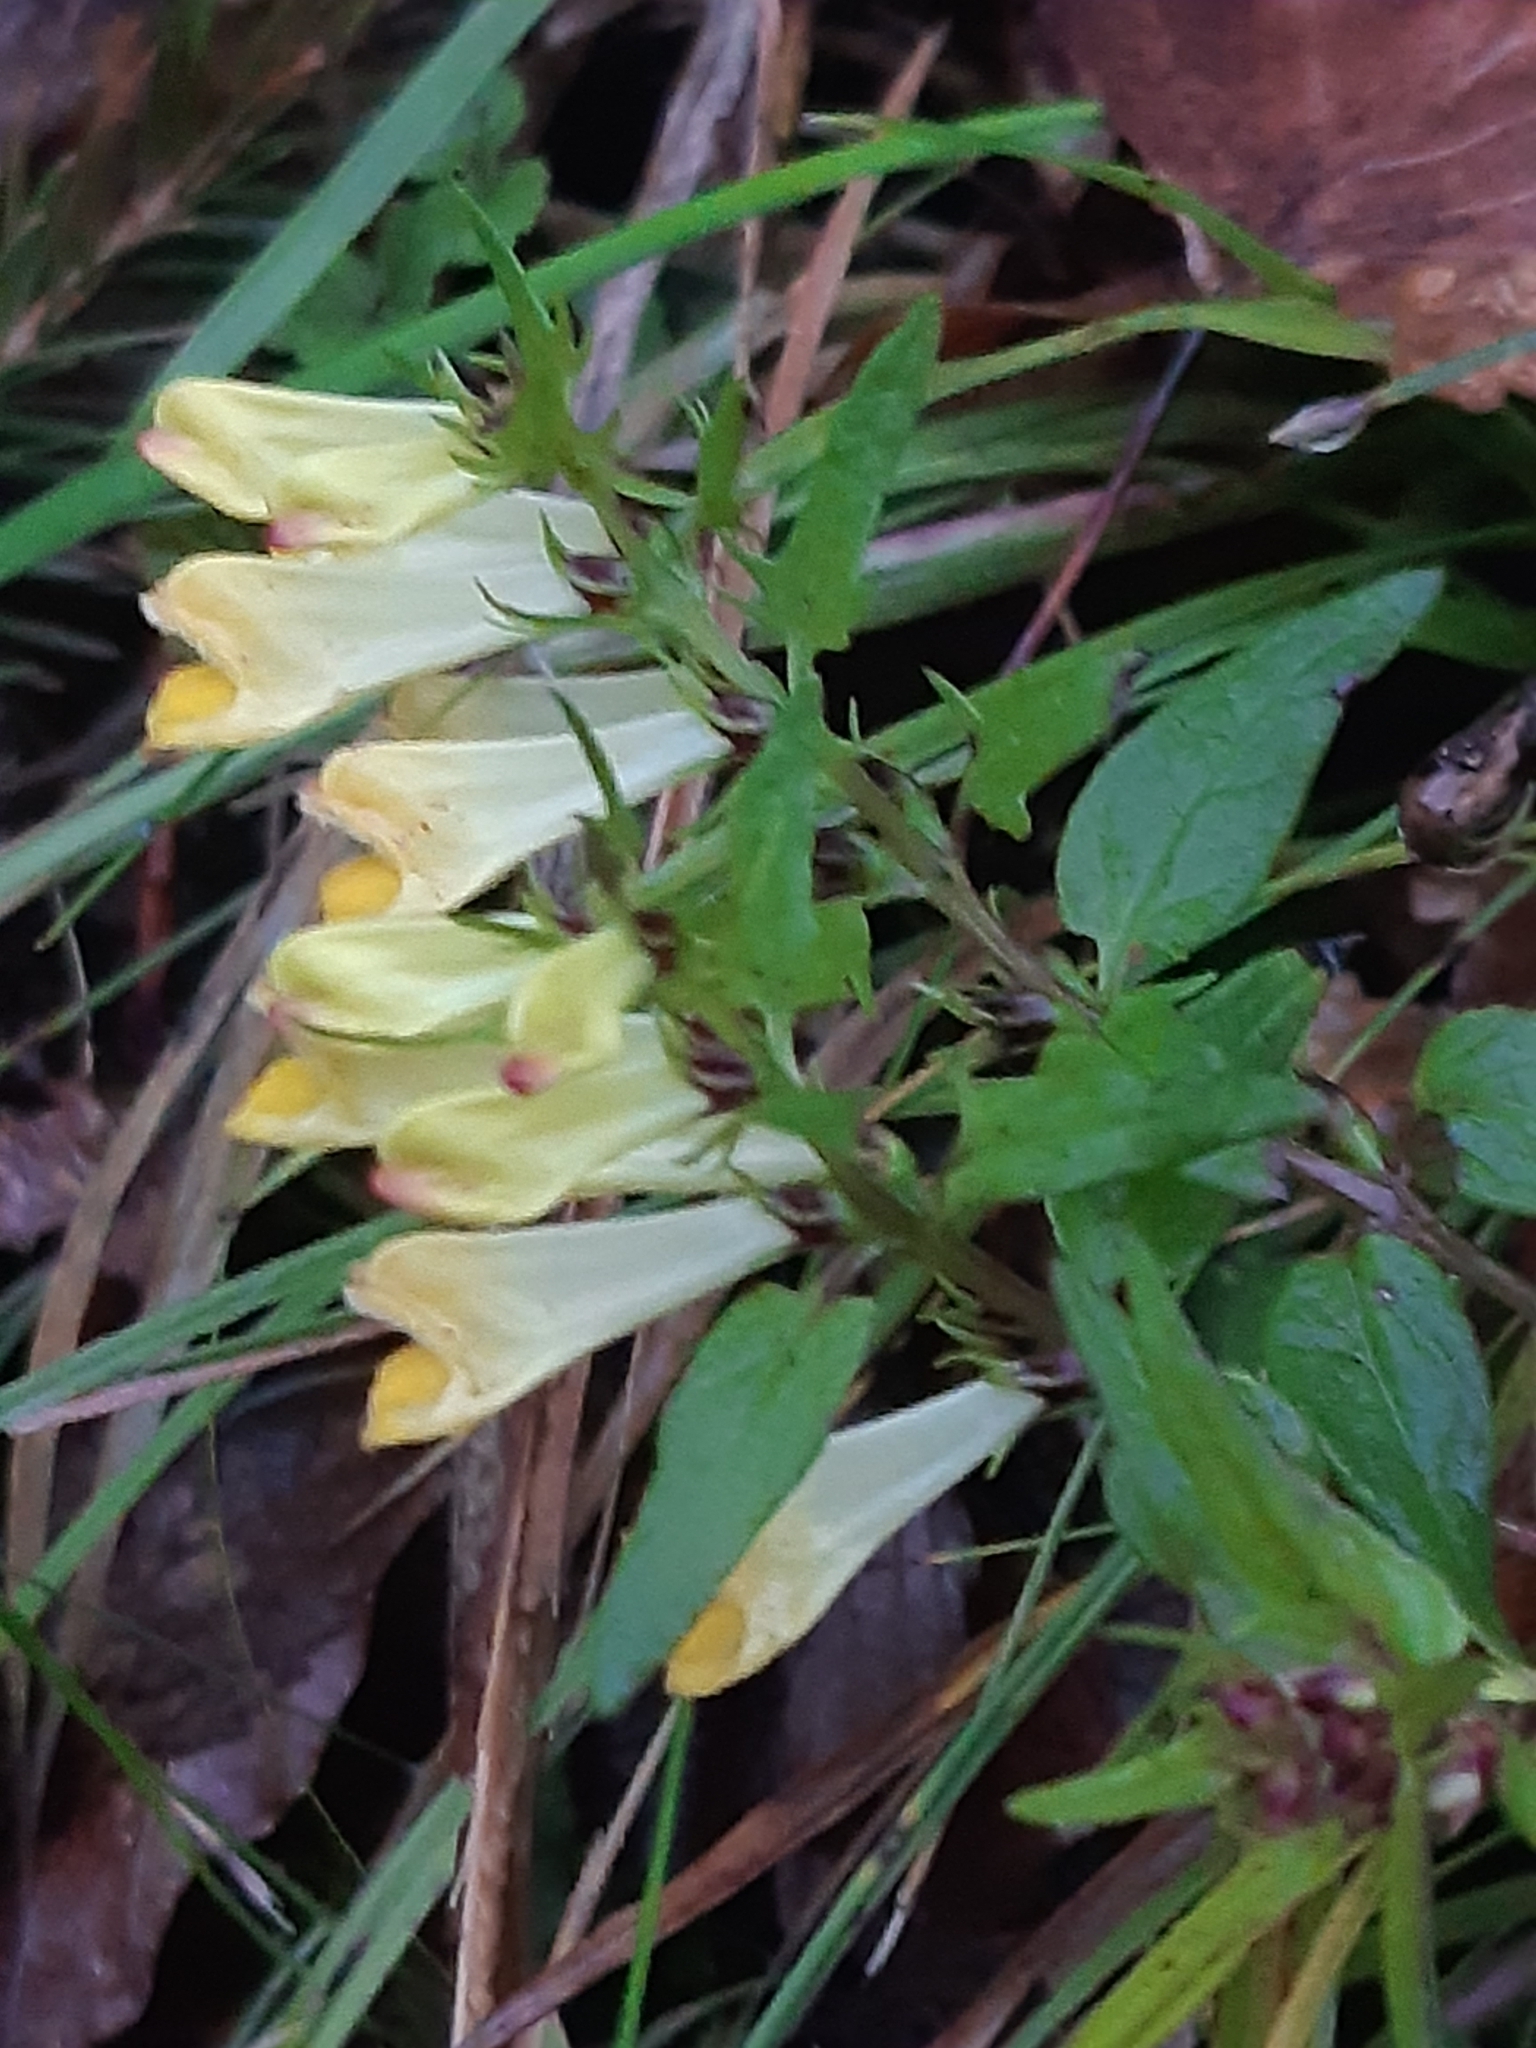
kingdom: Plantae
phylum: Tracheophyta
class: Magnoliopsida
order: Lamiales
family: Orobanchaceae
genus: Melampyrum
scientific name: Melampyrum pratense
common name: Common cow-wheat
